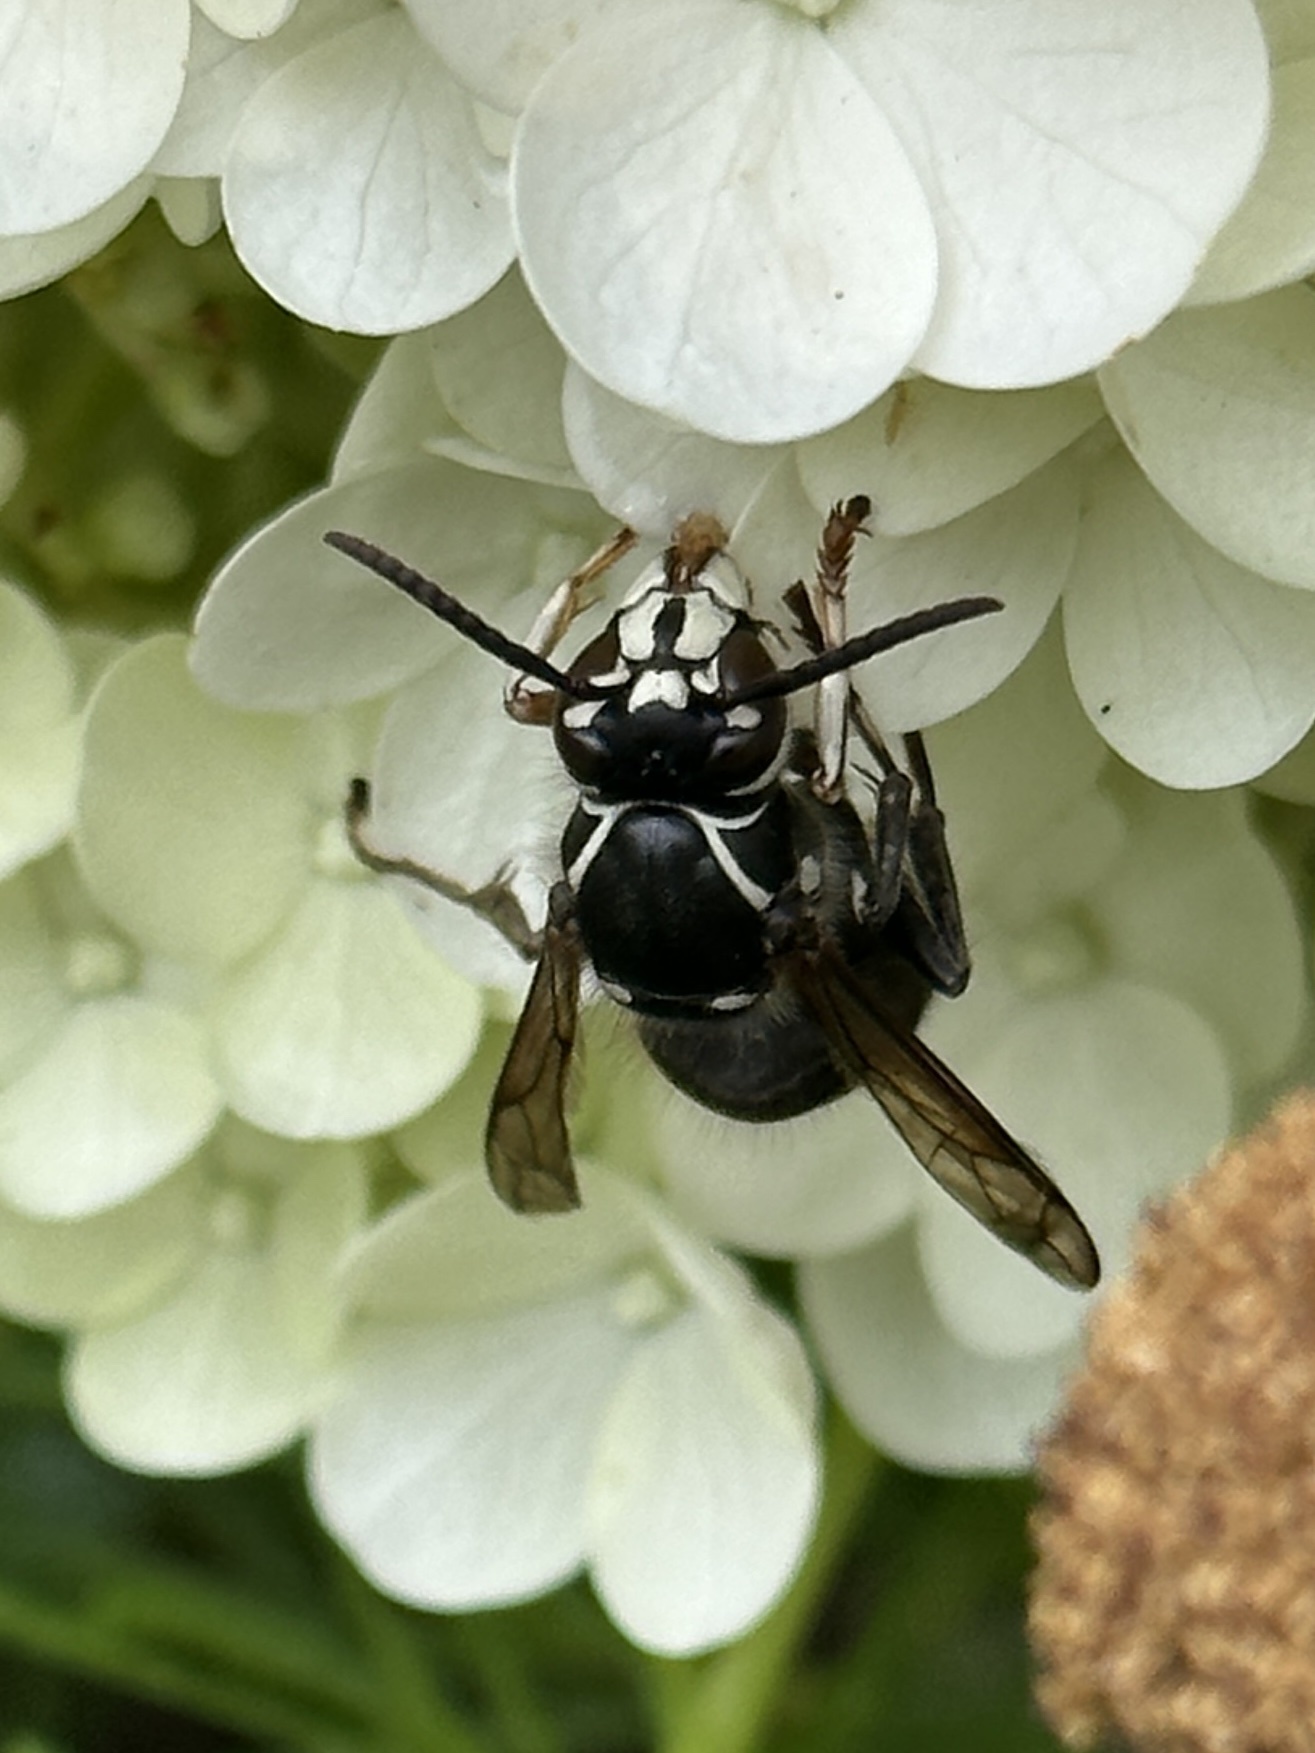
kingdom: Animalia
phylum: Arthropoda
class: Insecta
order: Hymenoptera
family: Vespidae
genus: Dolichovespula
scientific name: Dolichovespula maculata
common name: Bald-faced hornet
